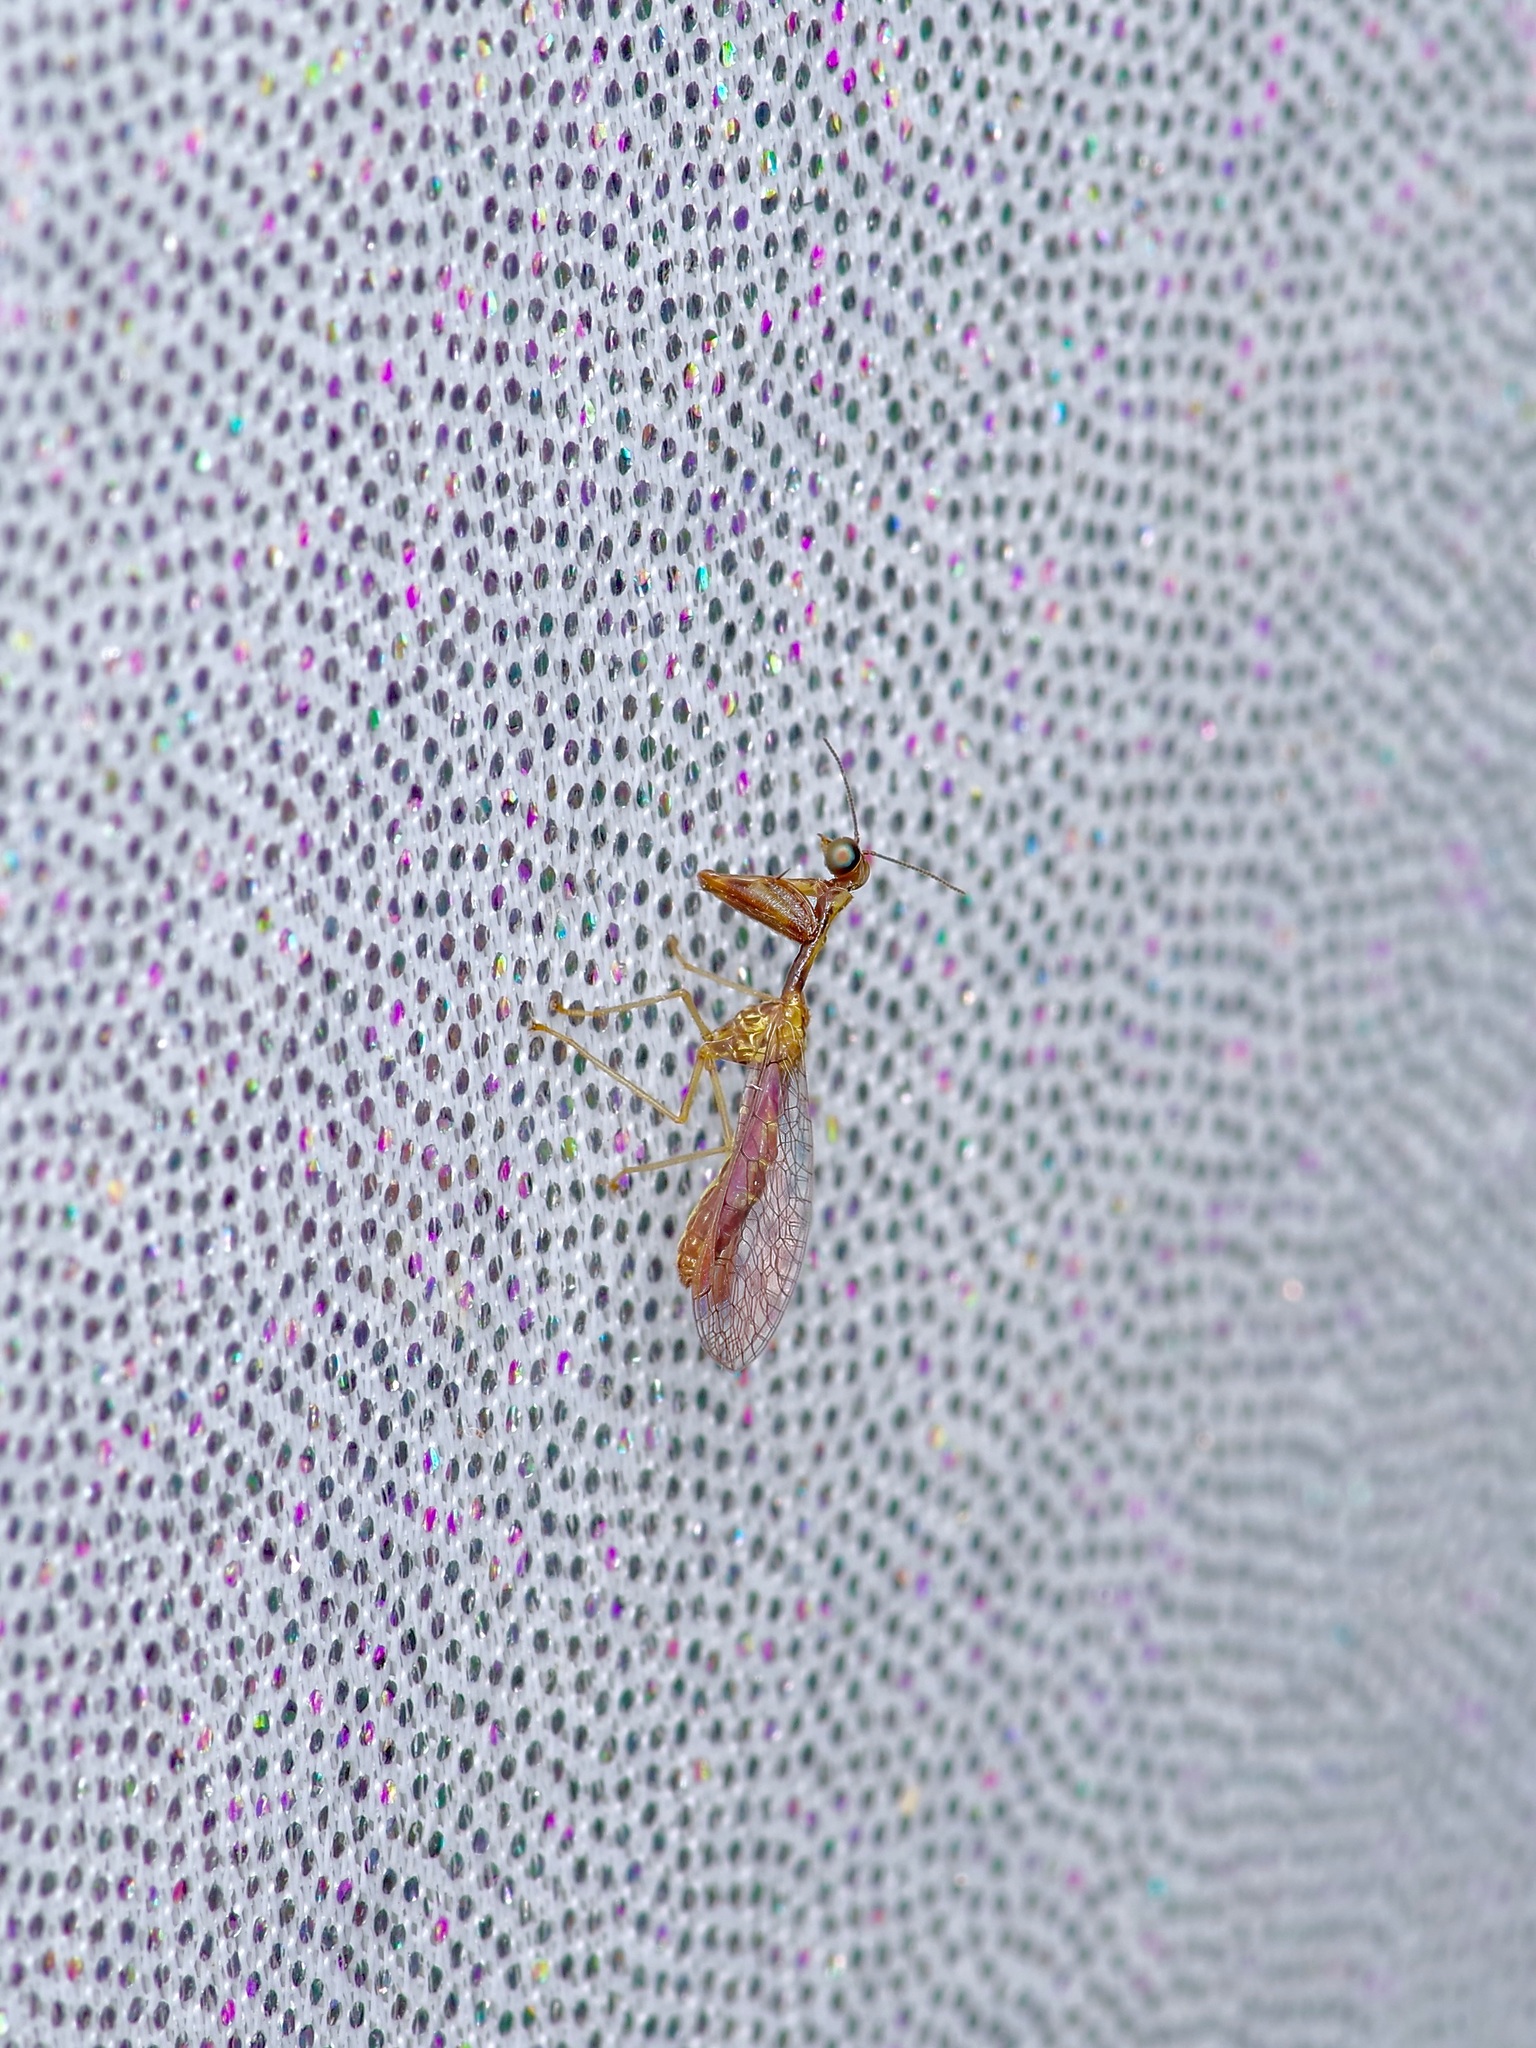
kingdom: Animalia
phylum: Arthropoda
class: Insecta
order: Neuroptera
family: Mantispidae
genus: Leptomantispa
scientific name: Leptomantispa pulchella
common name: Stevens's mantidfly
